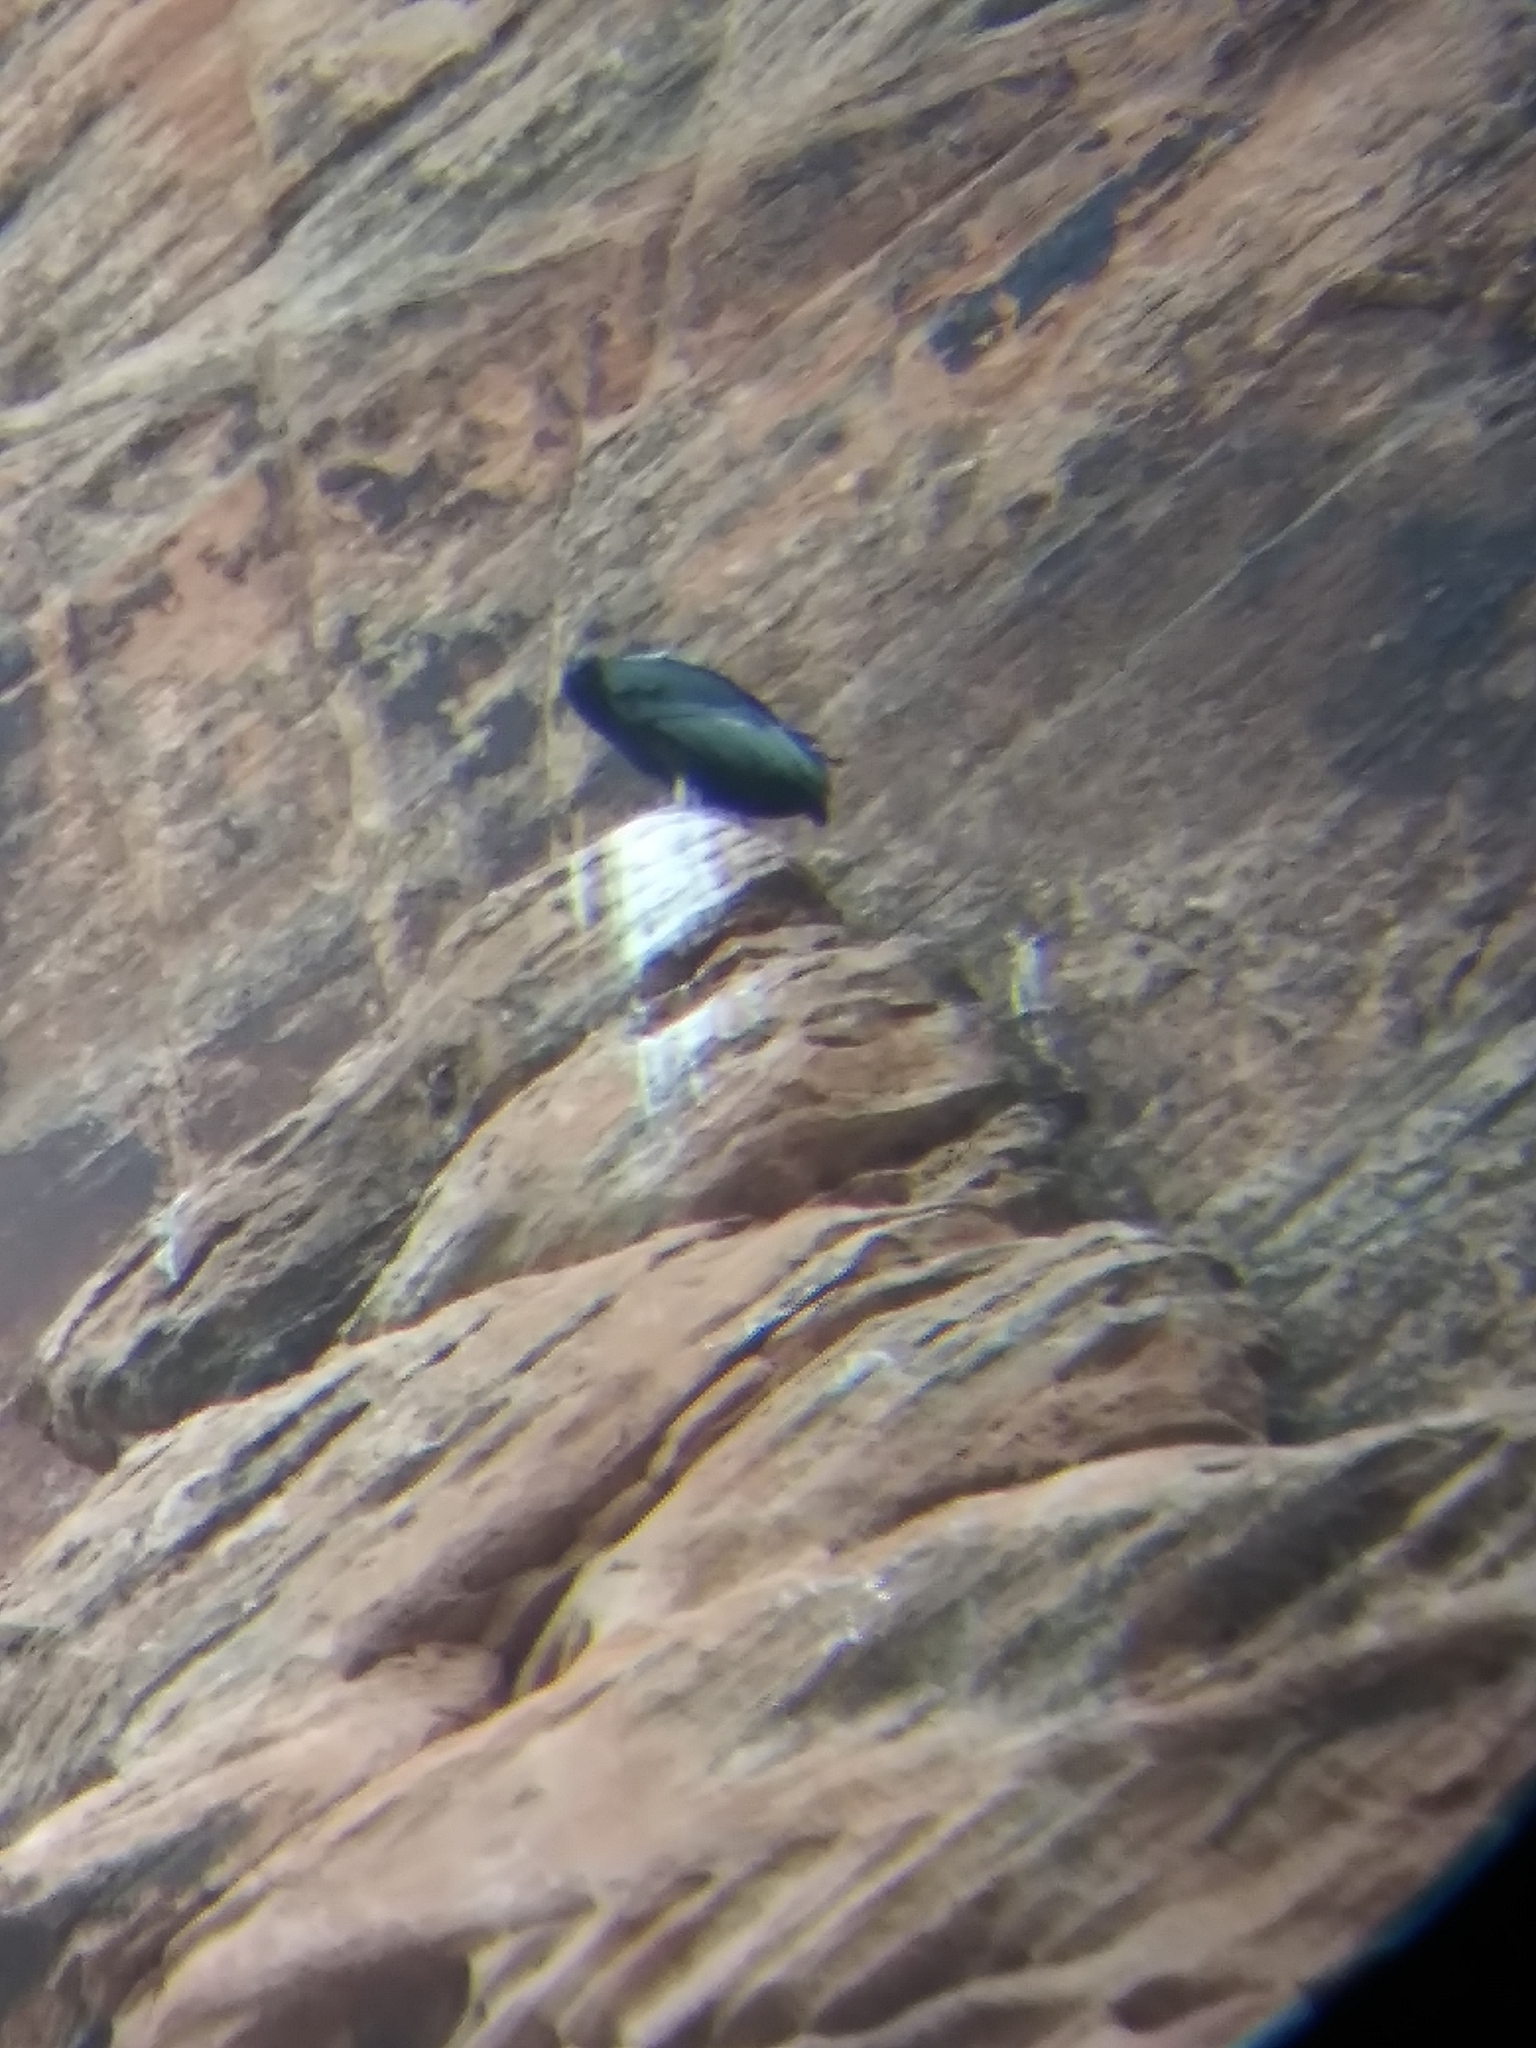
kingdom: Animalia
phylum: Chordata
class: Aves
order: Accipitriformes
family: Cathartidae
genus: Gymnogyps
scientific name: Gymnogyps californianus
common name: California condor
